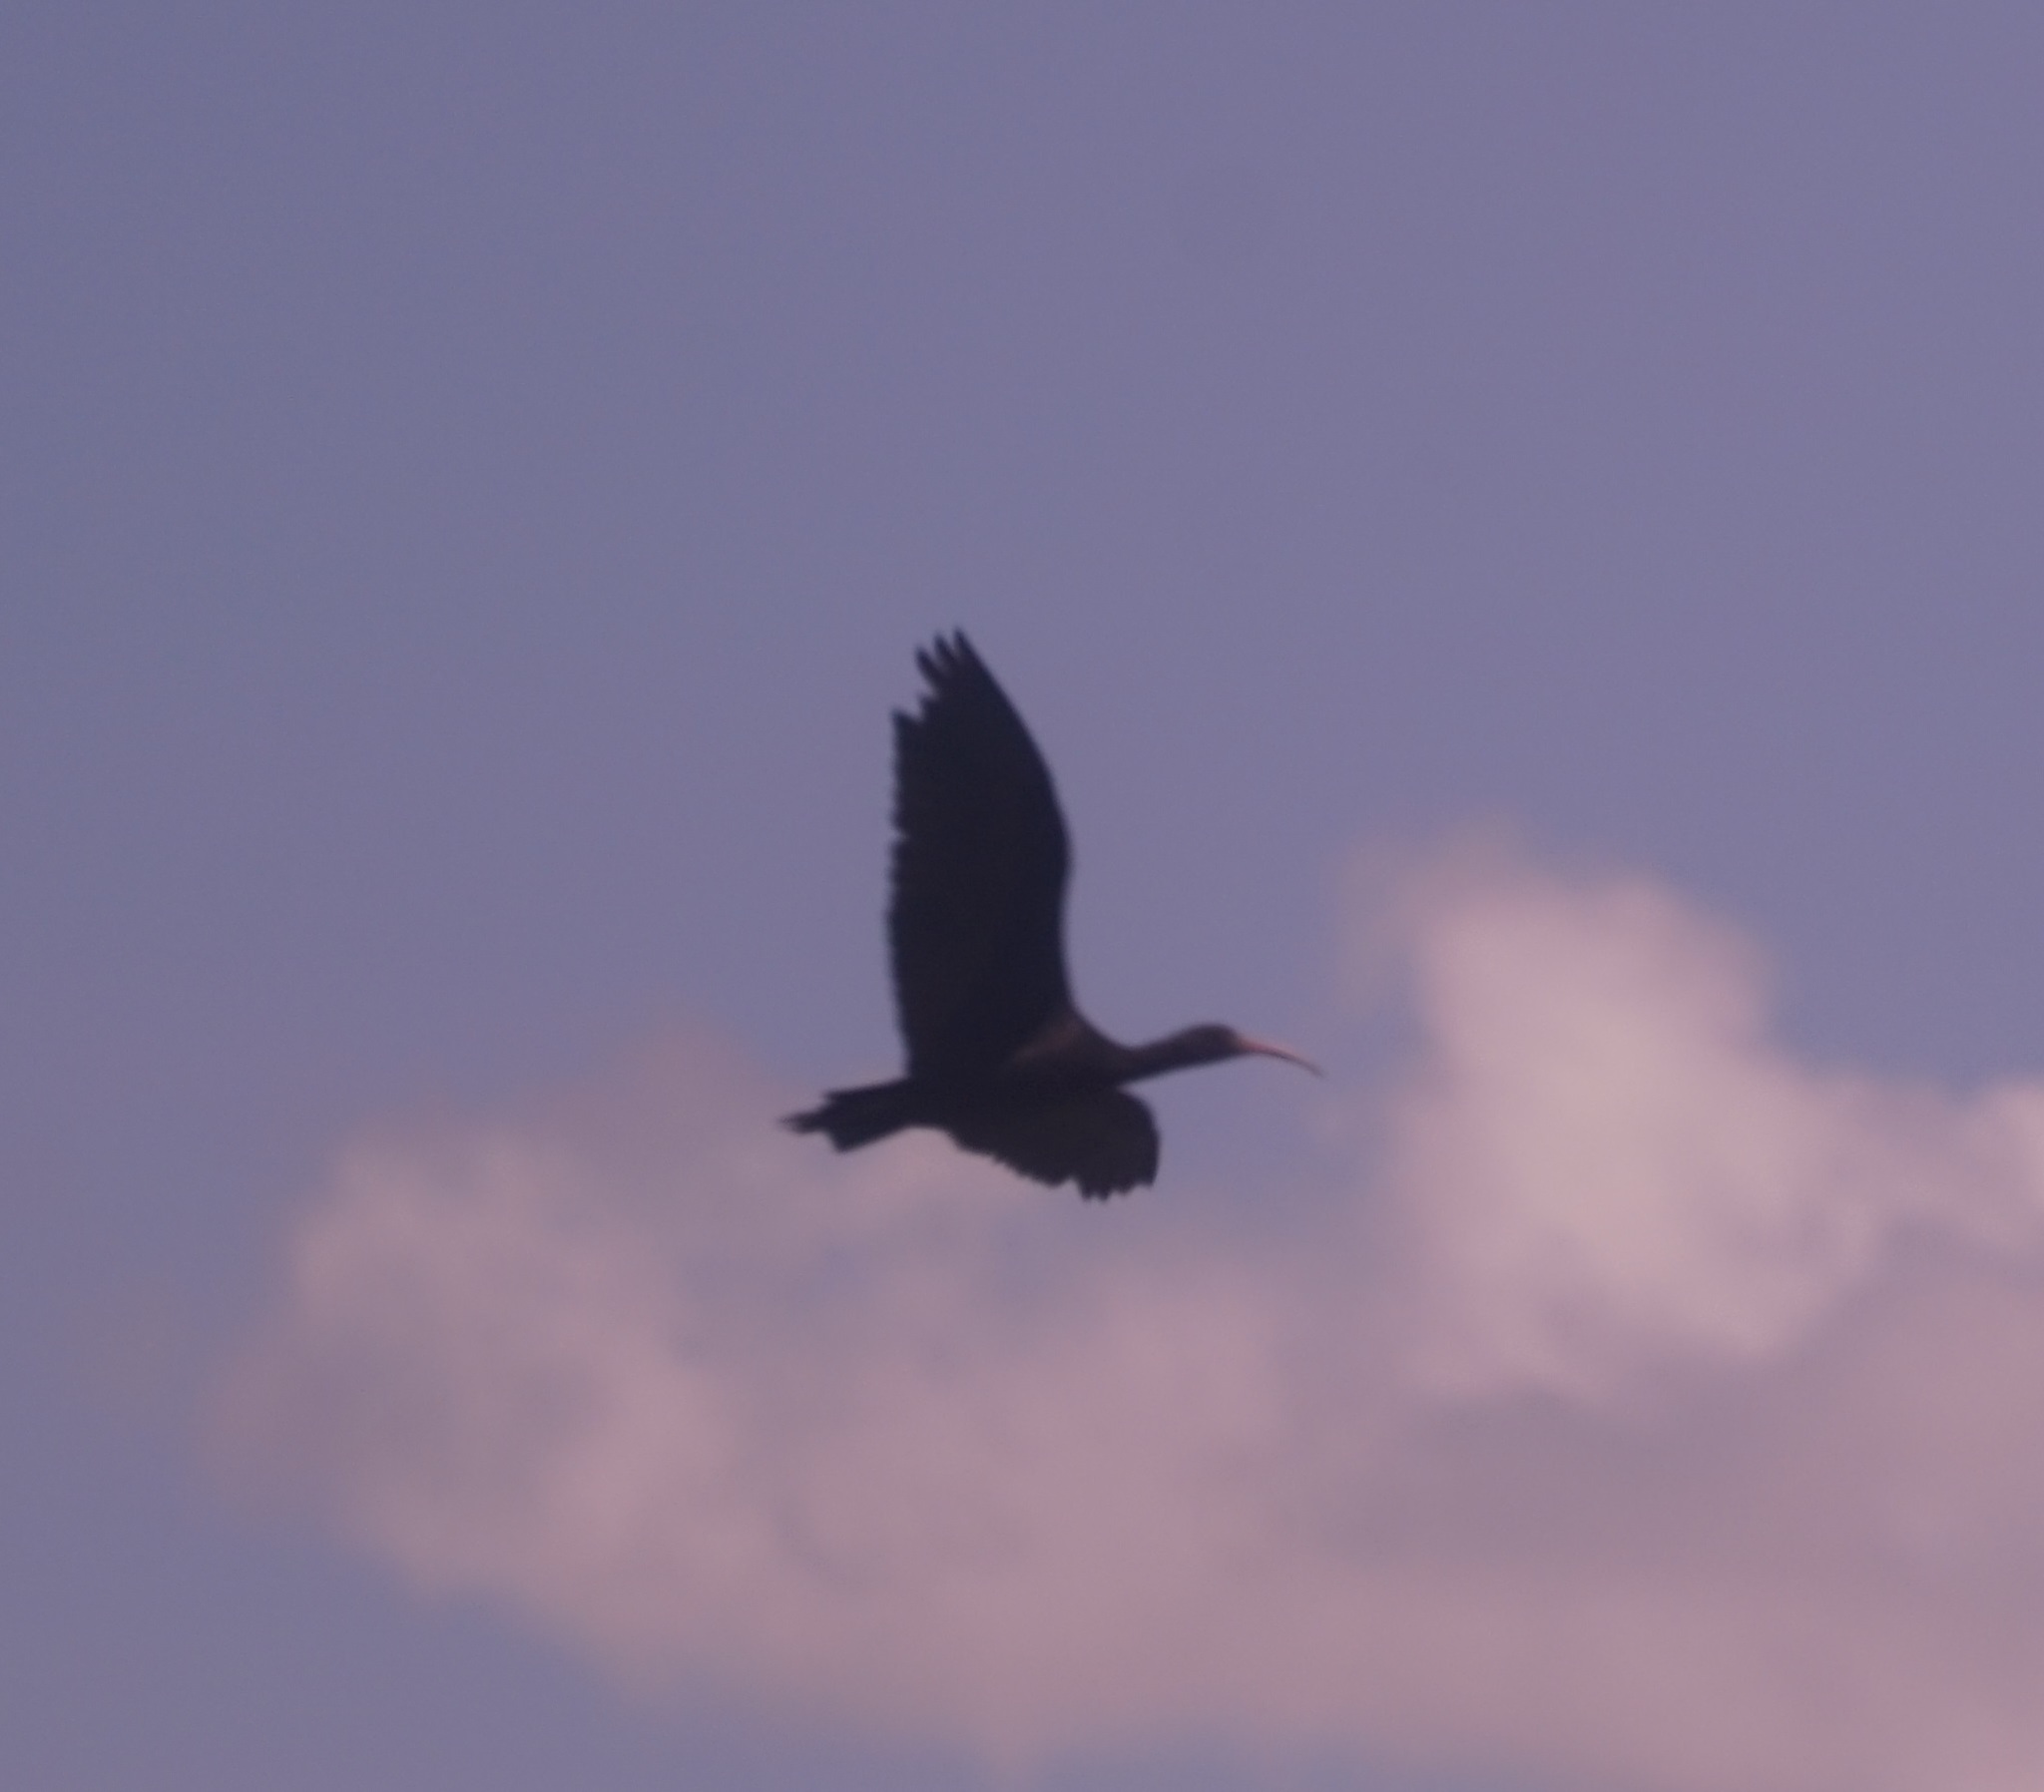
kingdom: Animalia
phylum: Chordata
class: Aves
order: Pelecaniformes
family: Threskiornithidae
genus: Plegadis
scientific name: Plegadis ridgwayi
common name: Puna ibis
